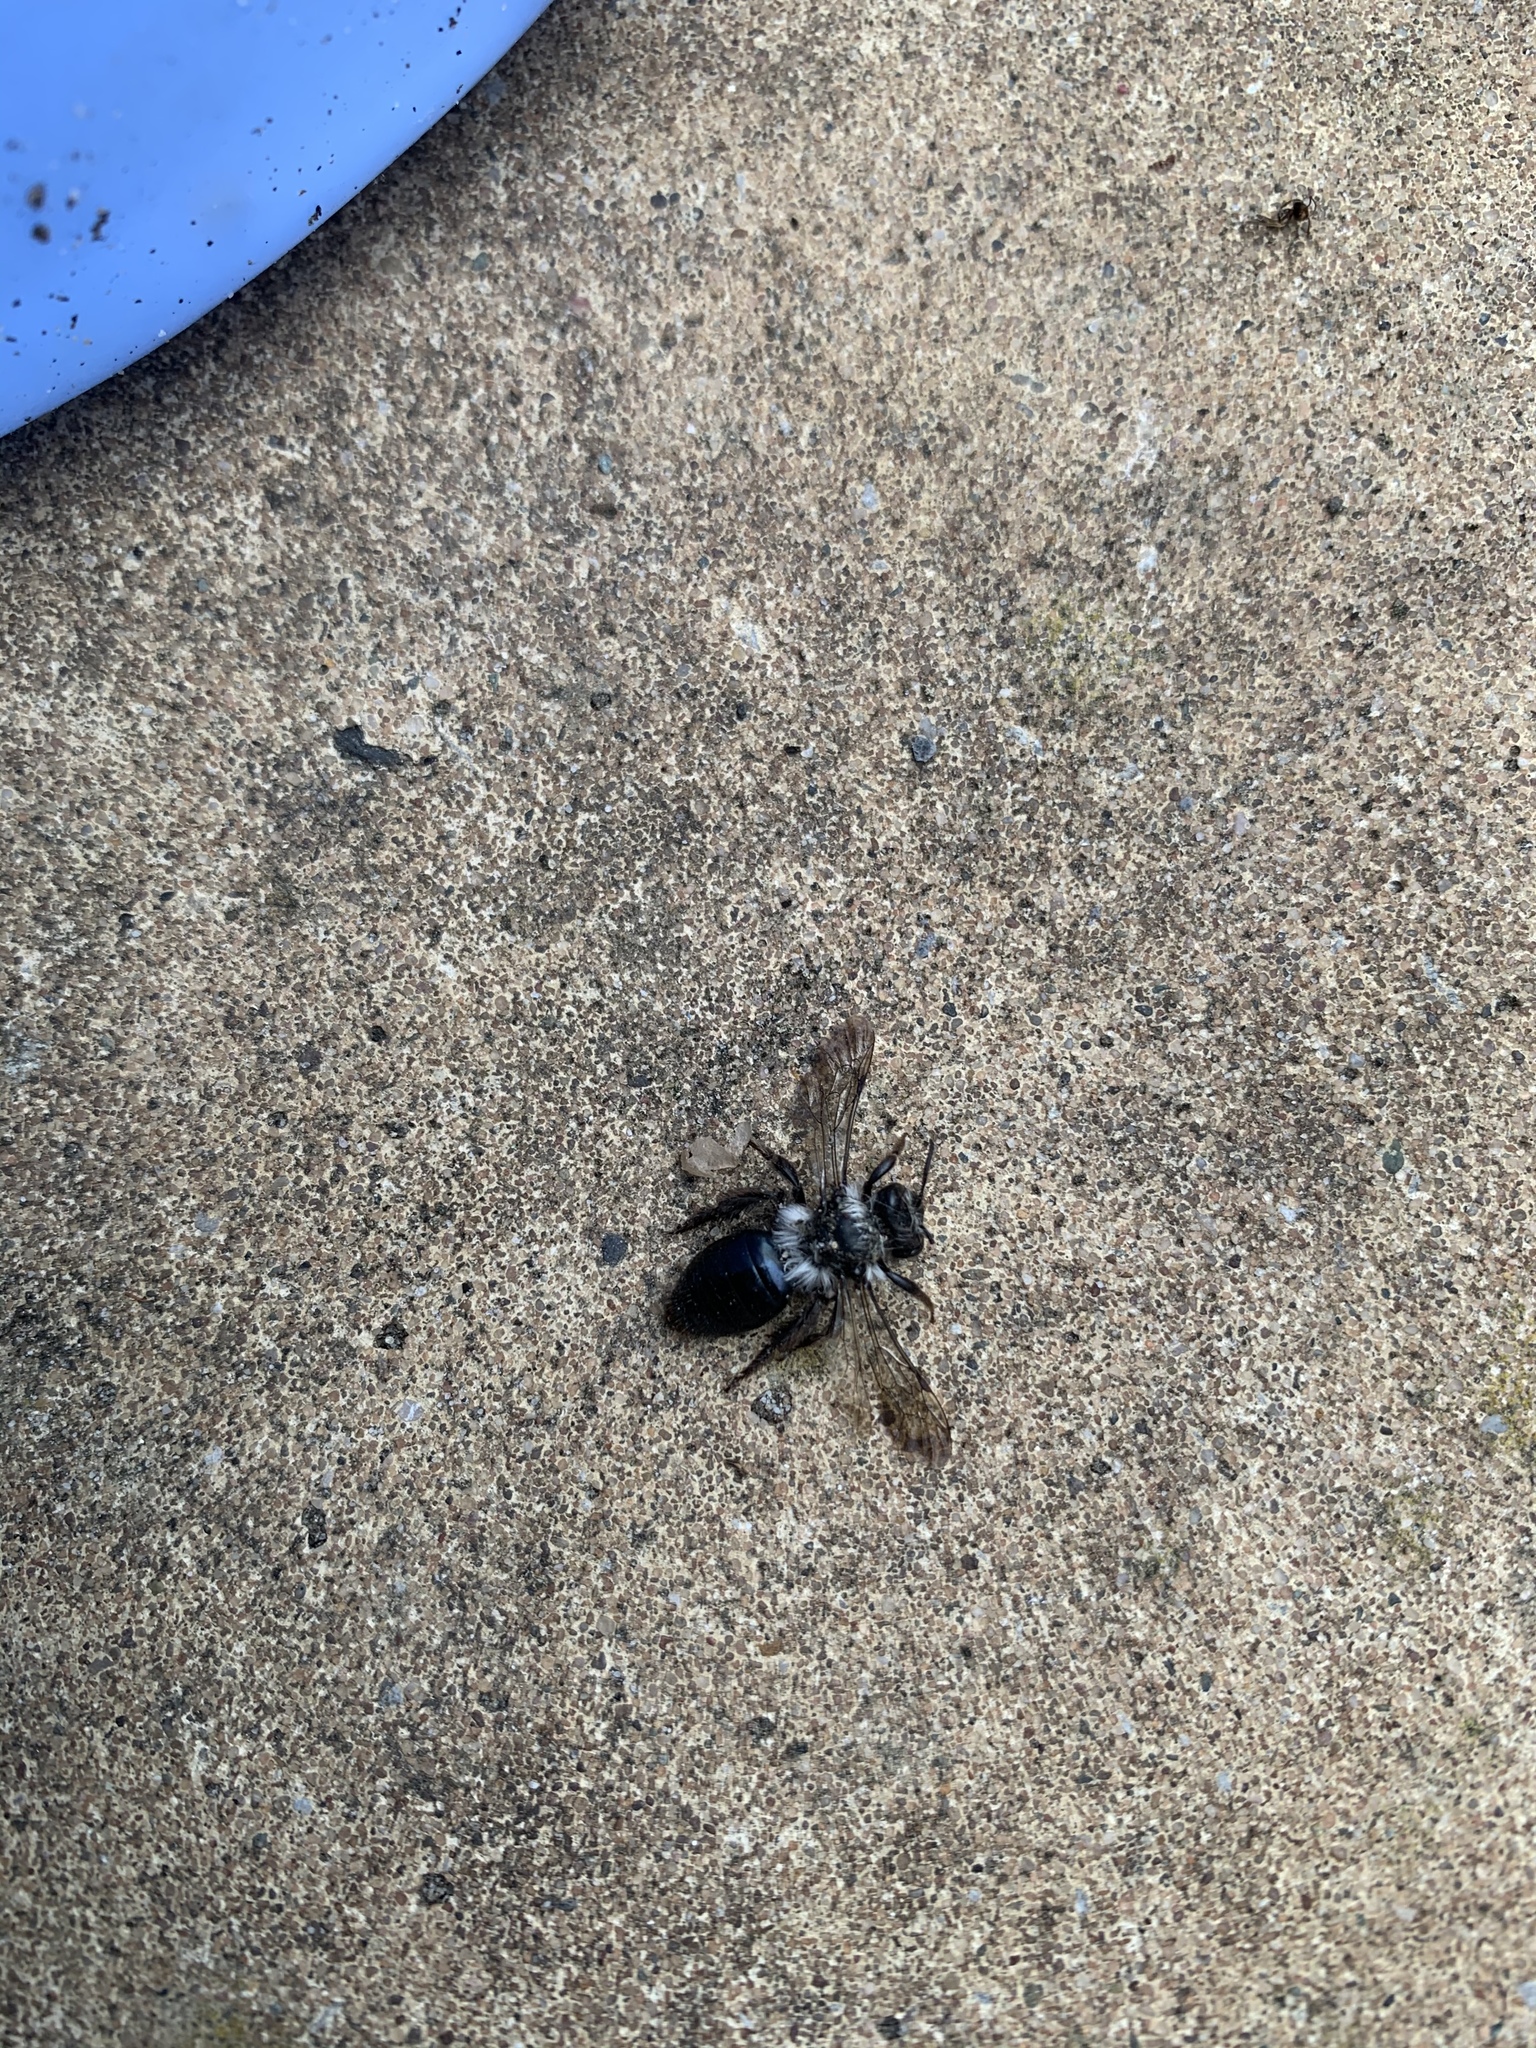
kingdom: Animalia
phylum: Arthropoda
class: Insecta
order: Hymenoptera
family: Andrenidae
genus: Andrena
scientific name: Andrena cineraria
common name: Ashy mining bee
